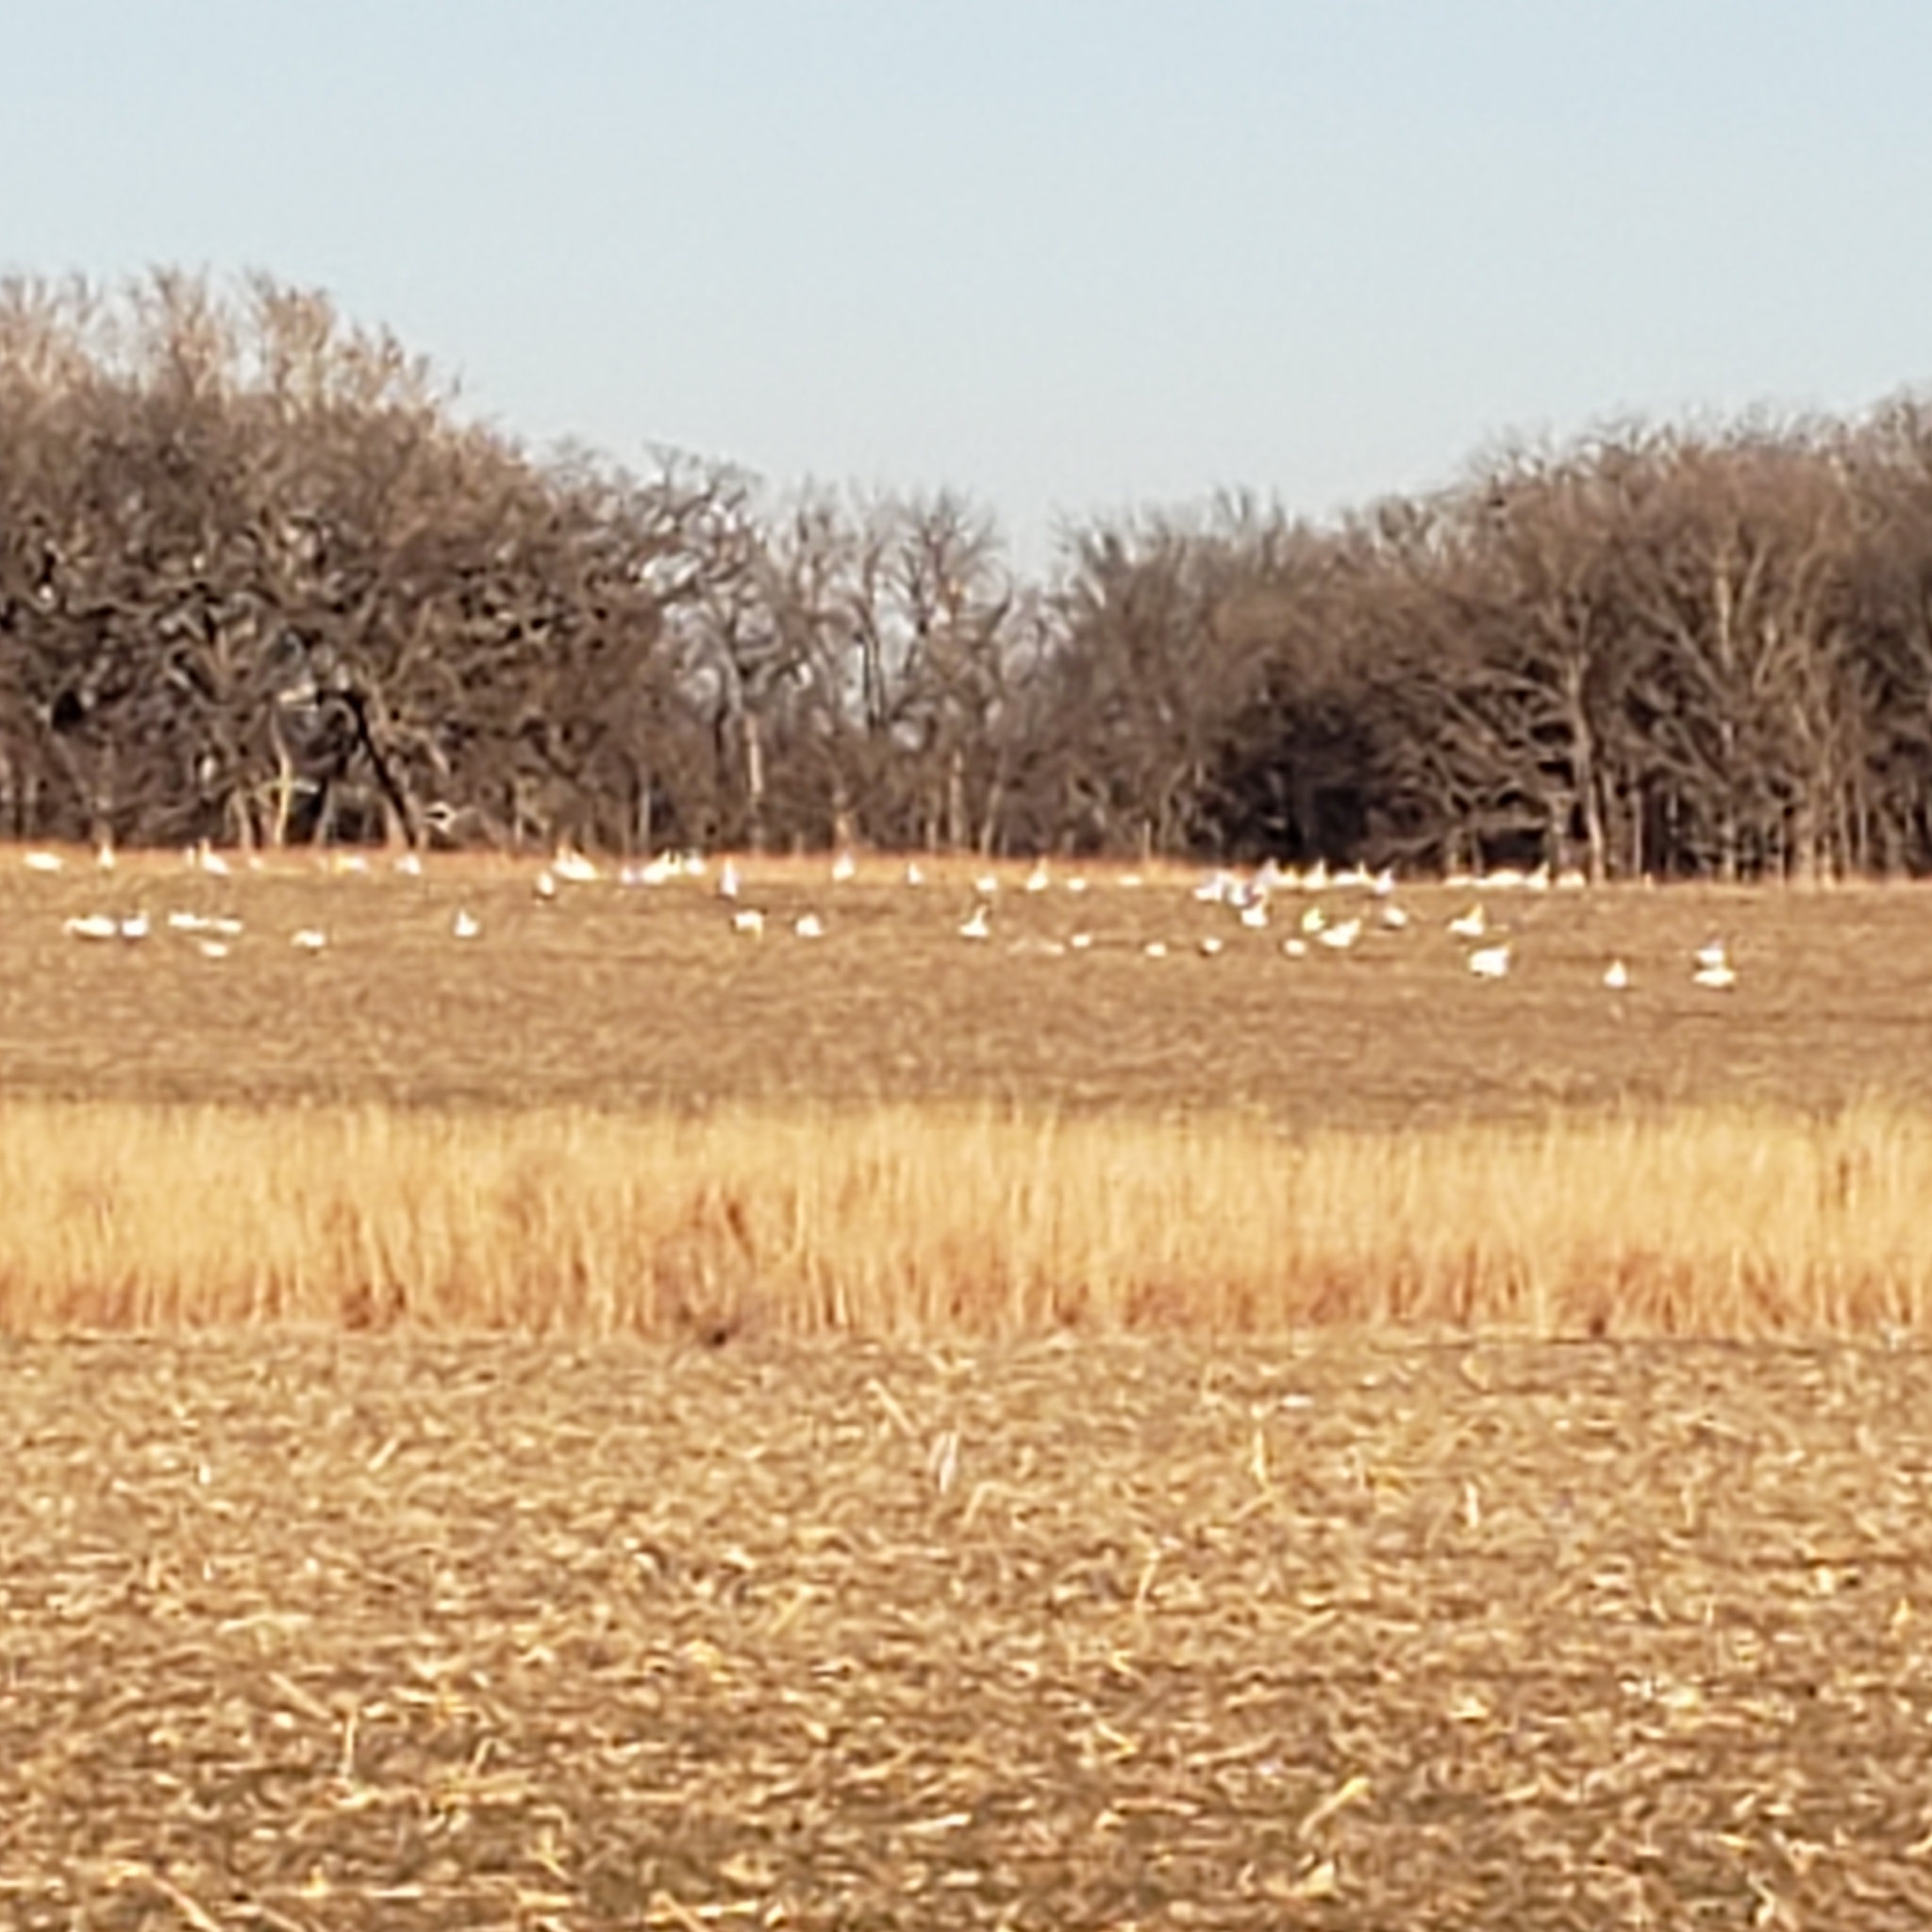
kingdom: Animalia
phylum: Chordata
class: Aves
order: Anseriformes
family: Anatidae
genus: Cygnus
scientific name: Cygnus buccinator
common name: Trumpeter swan
